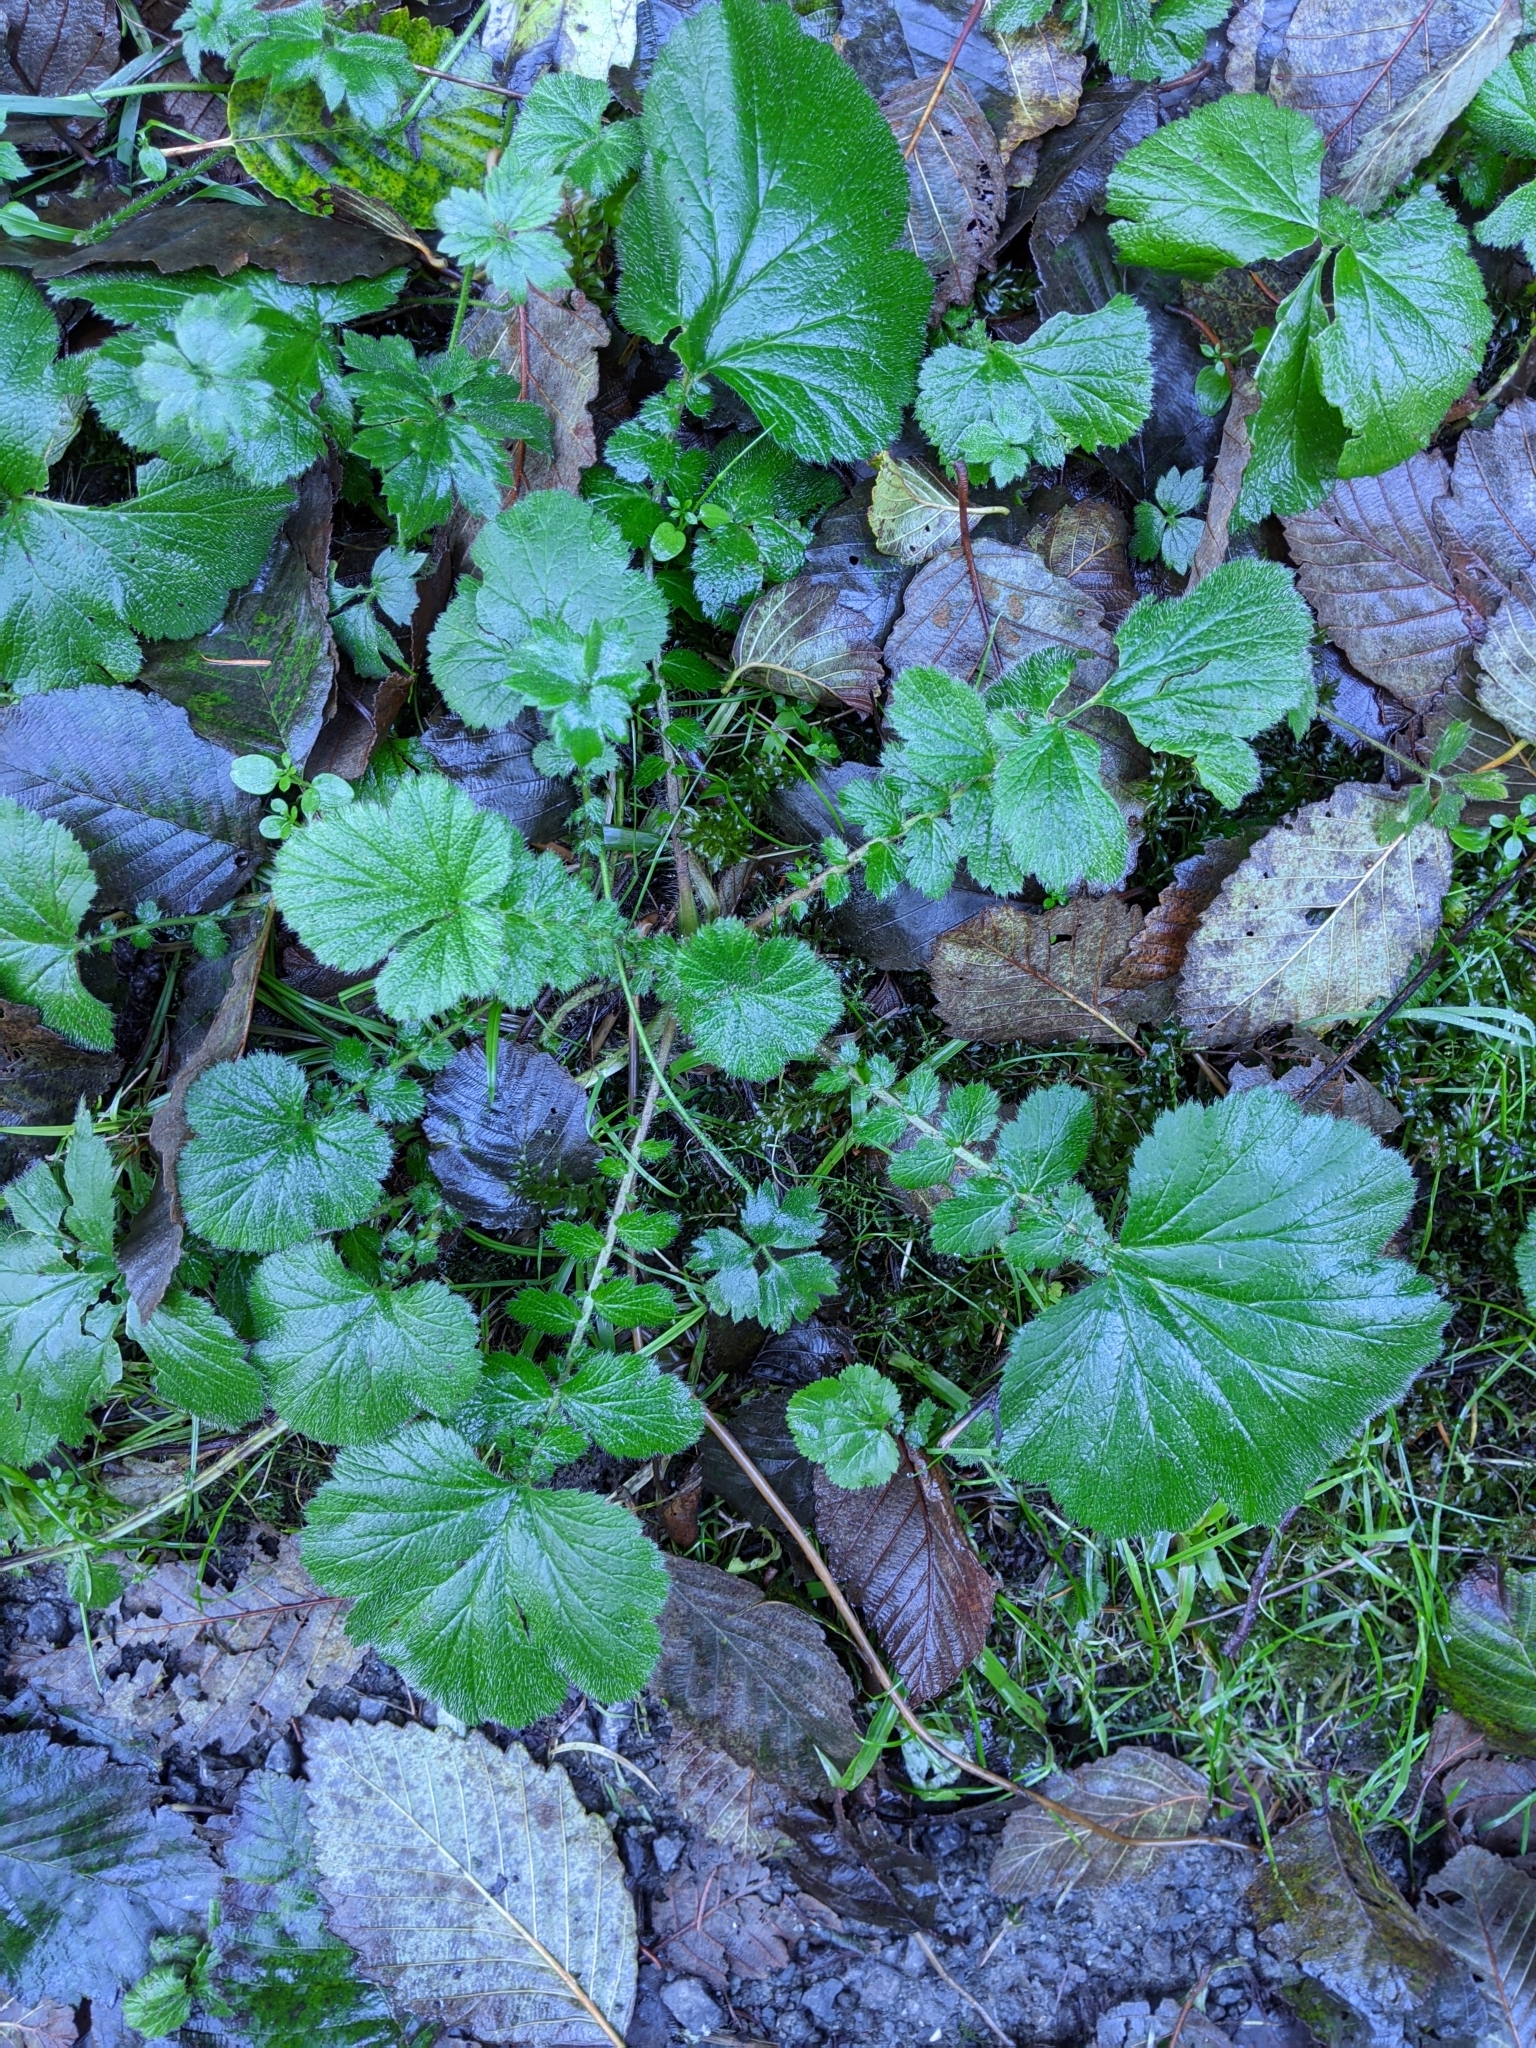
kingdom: Plantae
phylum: Tracheophyta
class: Magnoliopsida
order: Rosales
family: Rosaceae
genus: Geum
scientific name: Geum macrophyllum
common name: Large-leaved avens
